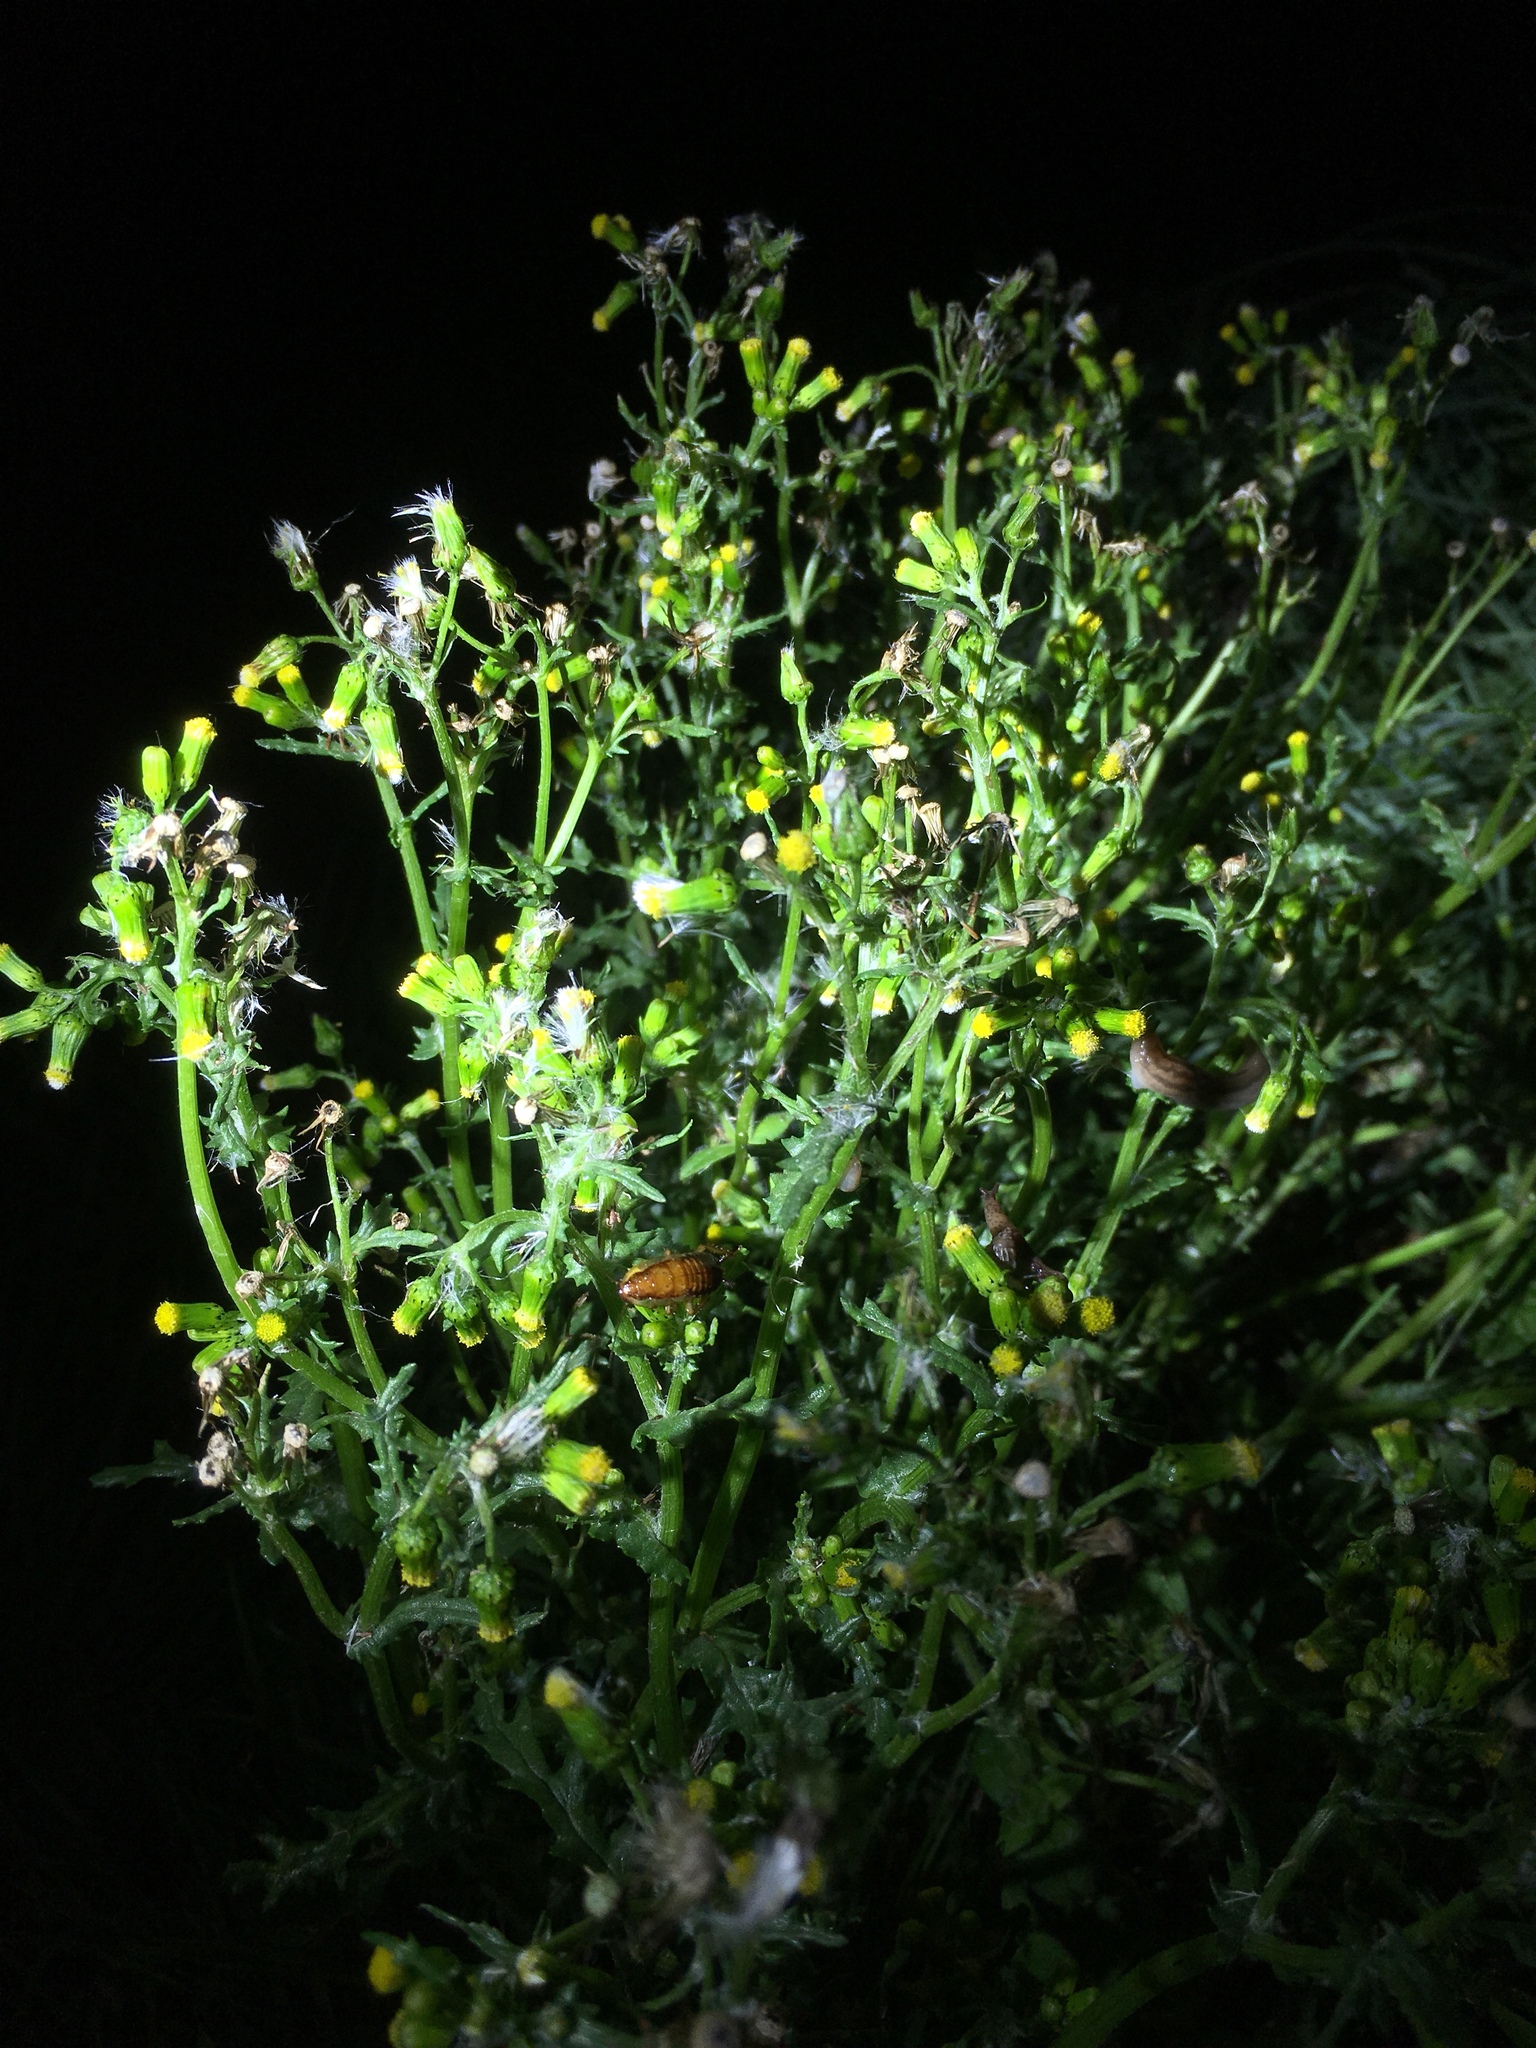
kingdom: Plantae
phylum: Tracheophyta
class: Magnoliopsida
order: Asterales
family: Asteraceae
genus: Senecio
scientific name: Senecio vulgaris
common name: Old-man-in-the-spring
